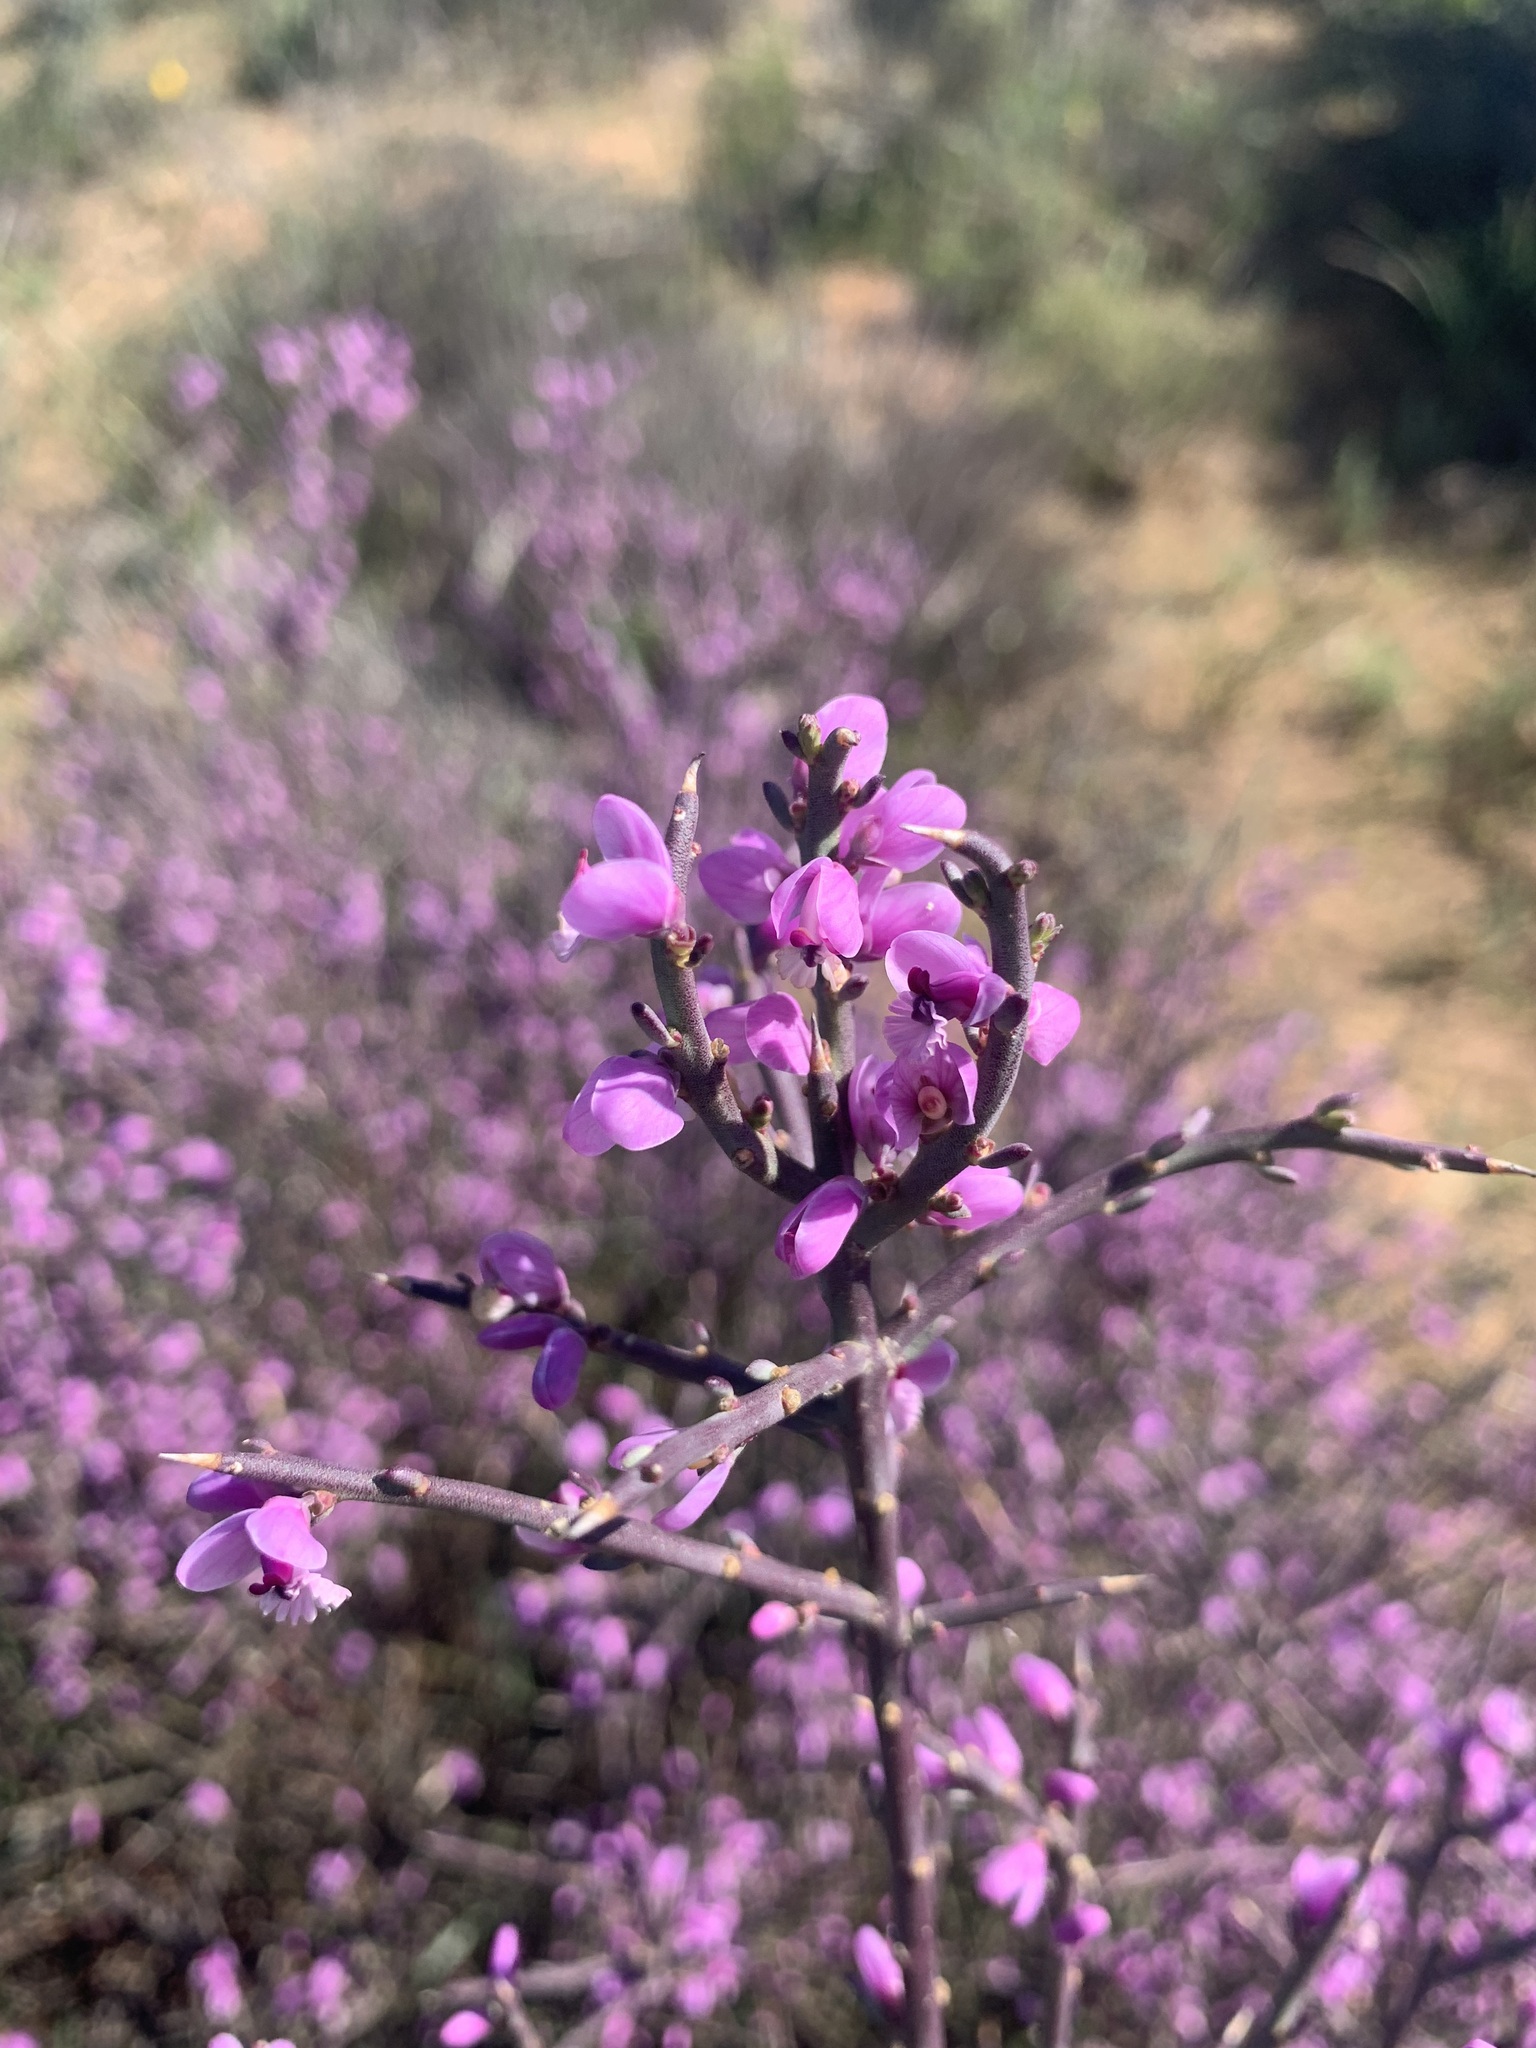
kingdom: Plantae
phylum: Tracheophyta
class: Magnoliopsida
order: Fabales
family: Polygalaceae
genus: Muraltia
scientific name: Muraltia spinosa
